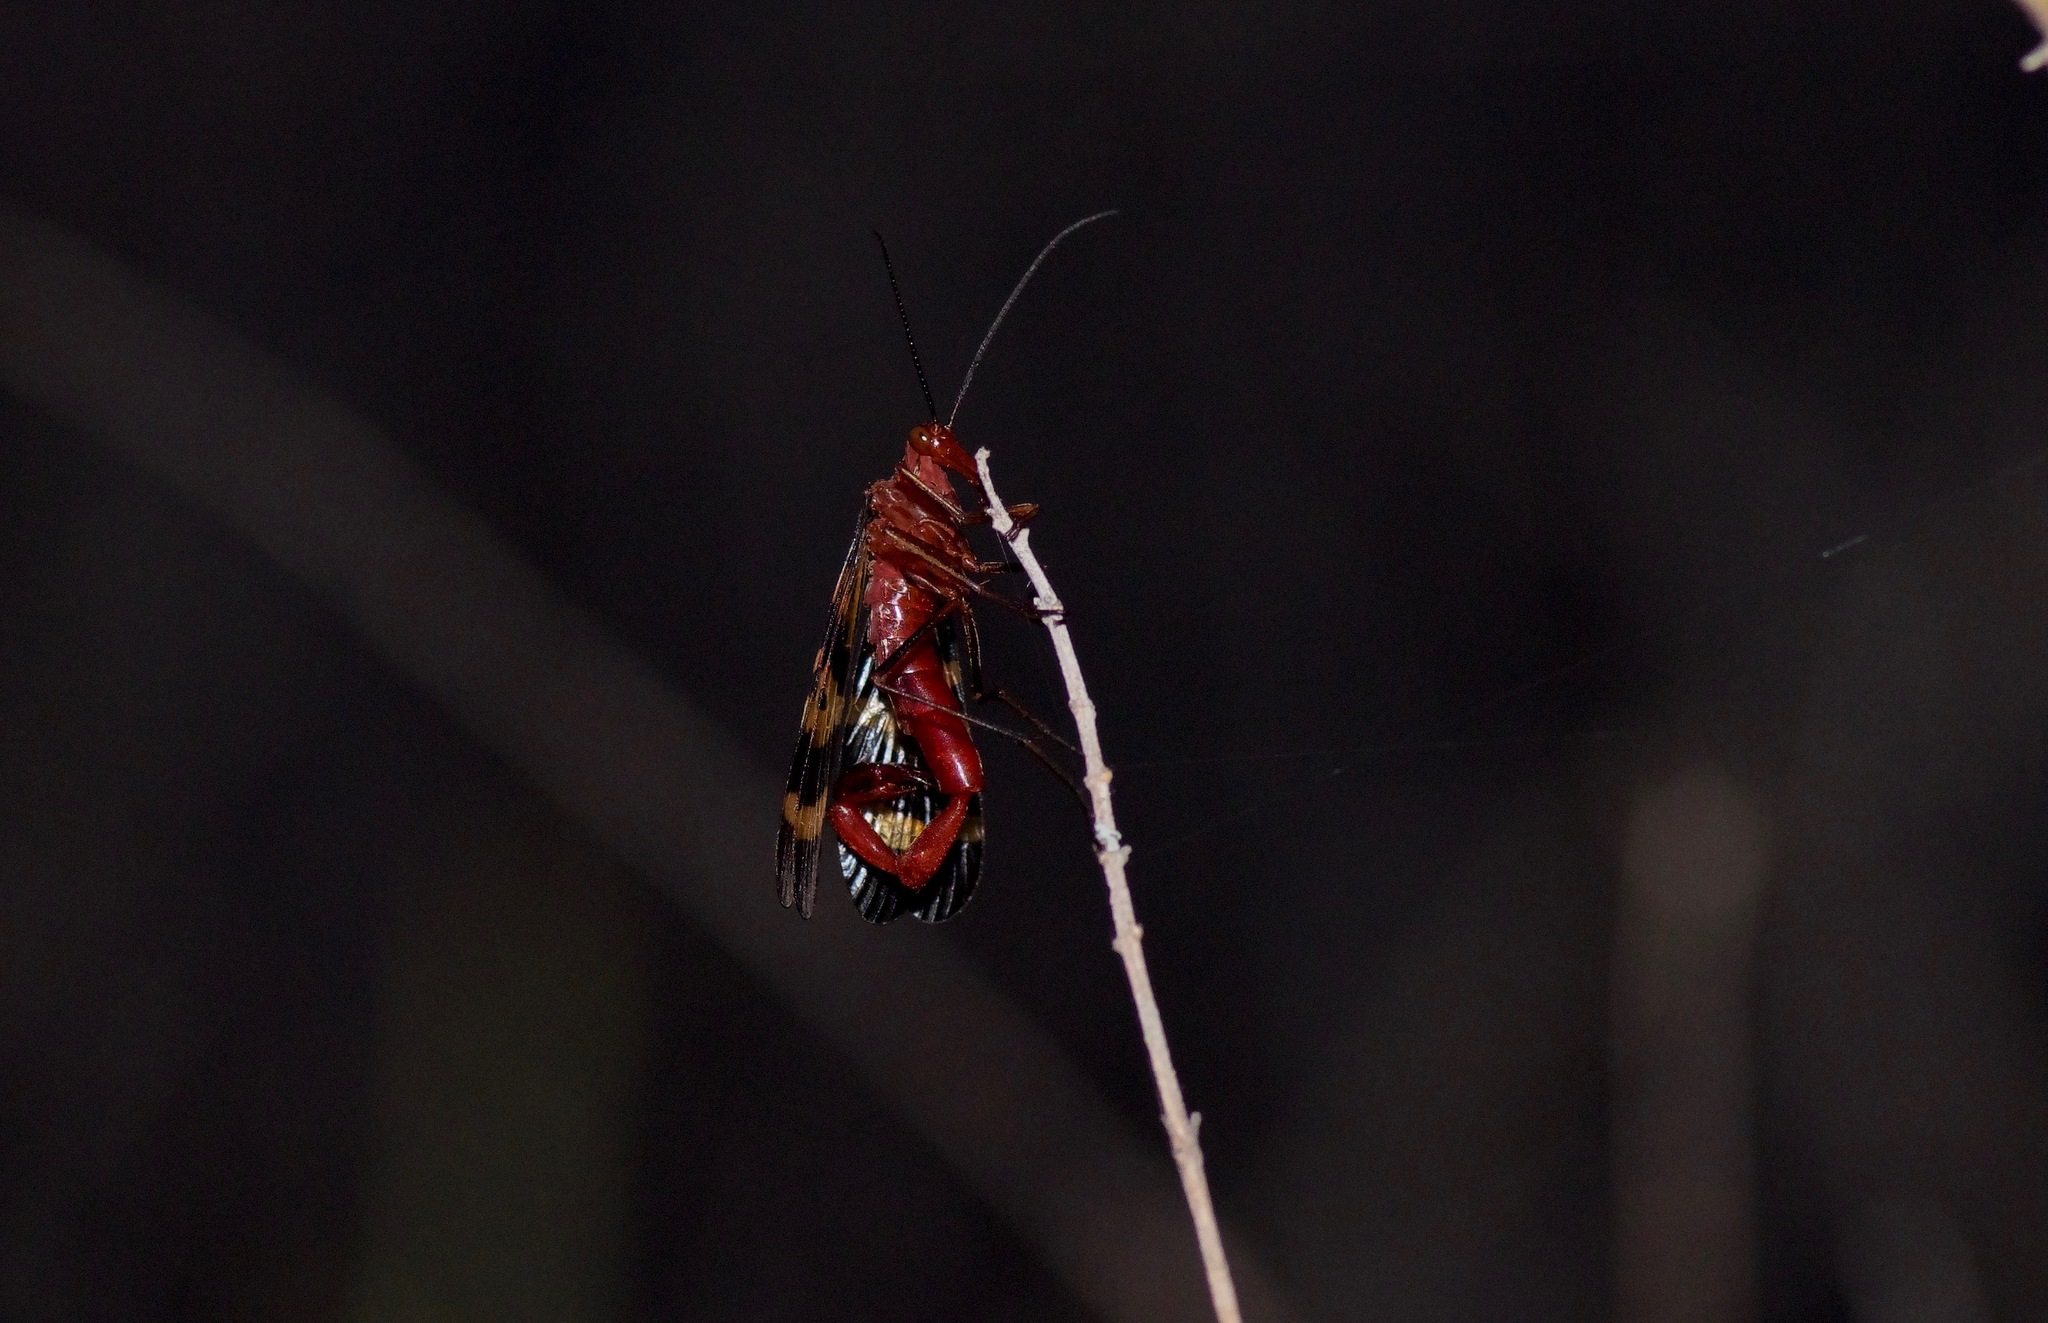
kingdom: Animalia
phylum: Arthropoda
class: Insecta
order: Mecoptera
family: Panorpidae
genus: Panorpa
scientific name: Panorpa nuptialis
